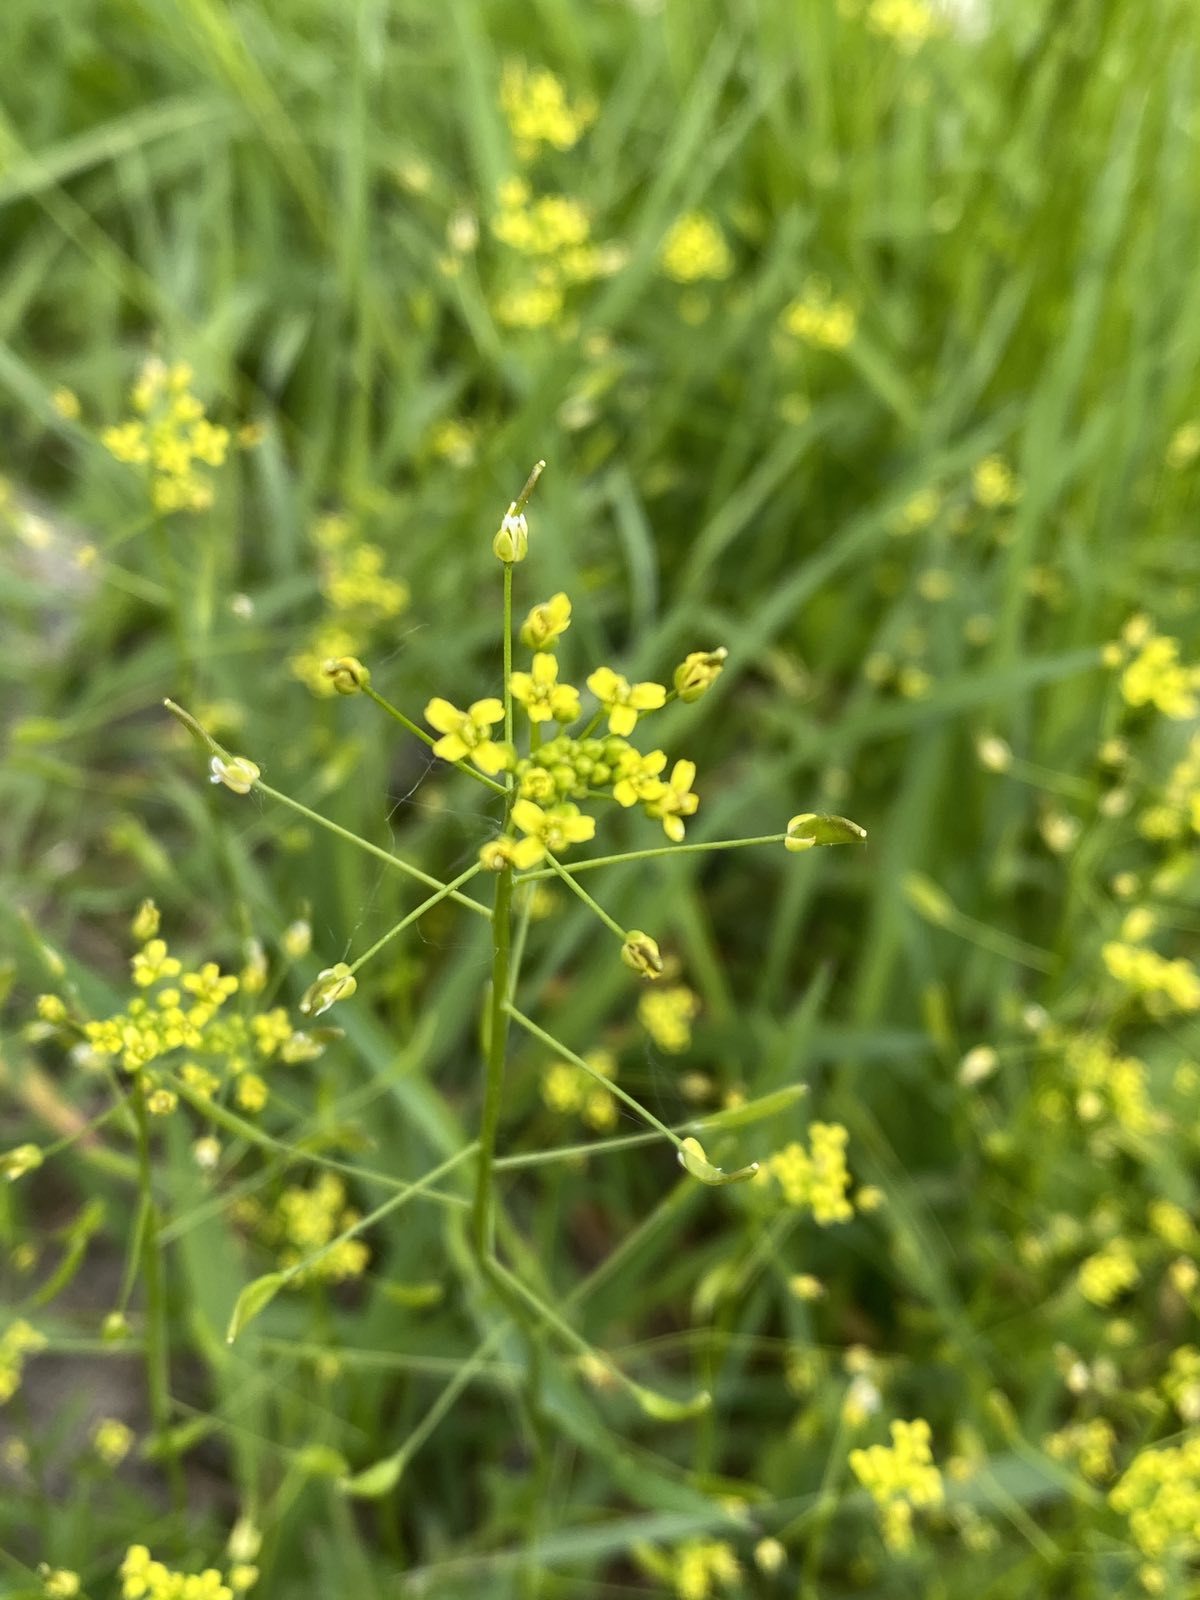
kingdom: Plantae
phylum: Tracheophyta
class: Magnoliopsida
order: Brassicales
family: Brassicaceae
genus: Draba
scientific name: Draba nemorosa
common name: Wood whitlow-grass
